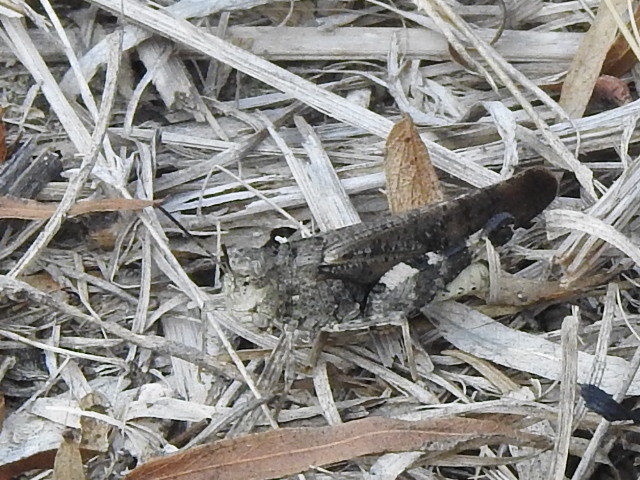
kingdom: Animalia
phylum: Arthropoda
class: Insecta
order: Orthoptera
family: Acrididae
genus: Arphia
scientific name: Arphia simplex
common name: Plains yellow-winged grasshopper
